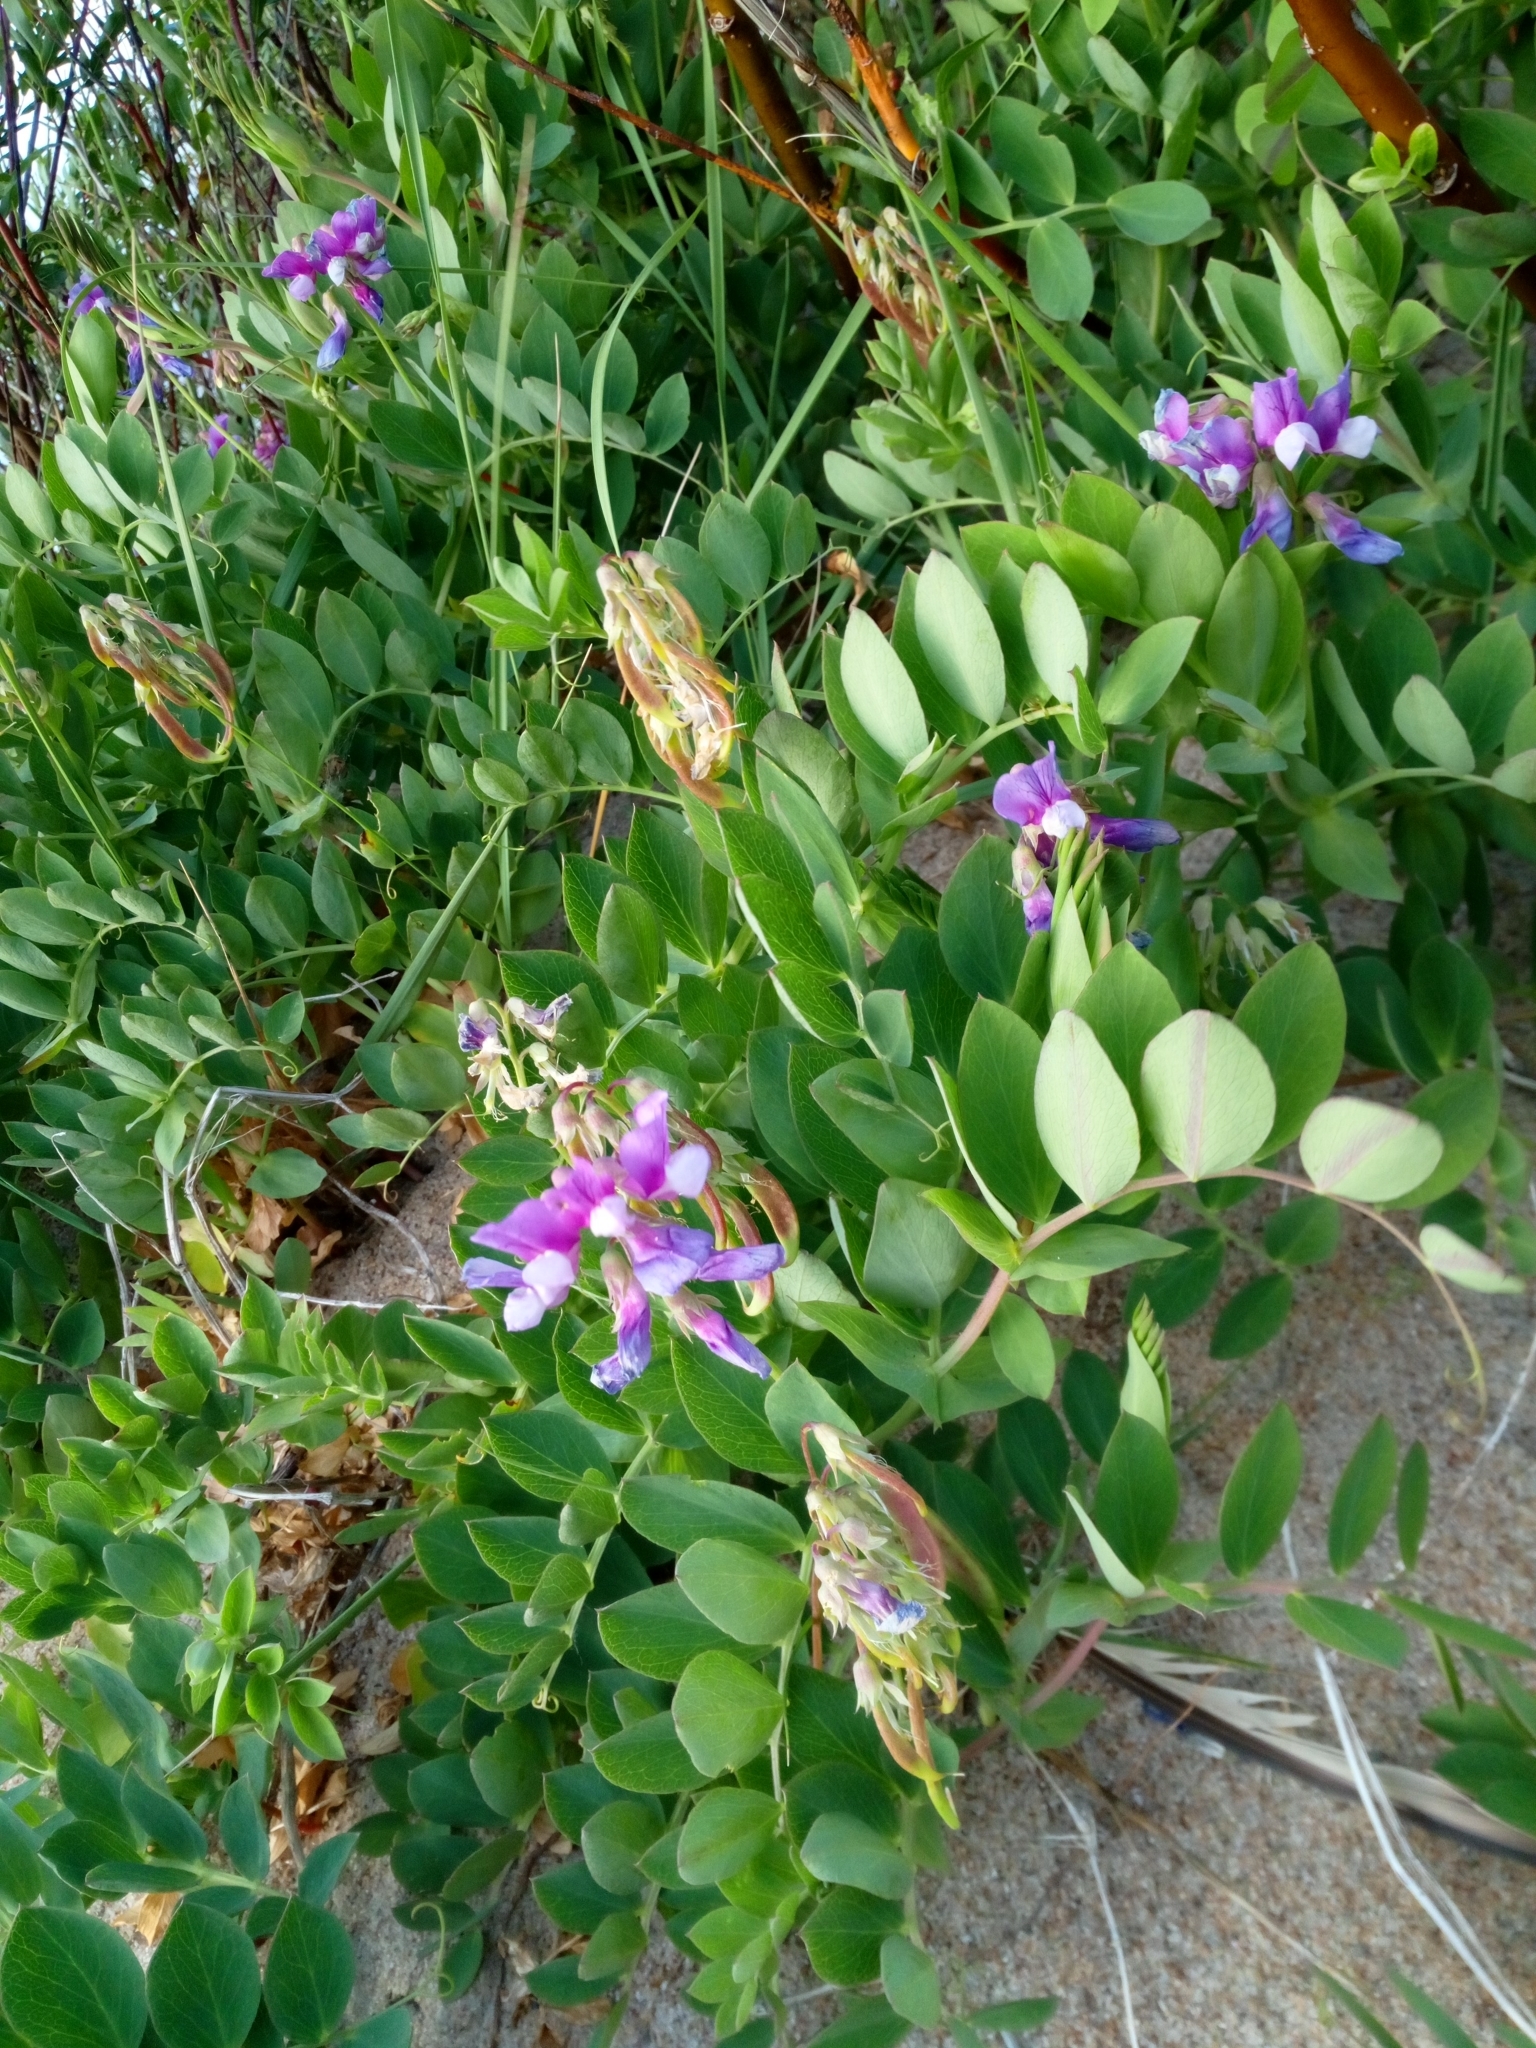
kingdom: Plantae
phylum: Tracheophyta
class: Magnoliopsida
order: Fabales
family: Fabaceae
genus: Lathyrus
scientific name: Lathyrus japonicus
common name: Sea pea
